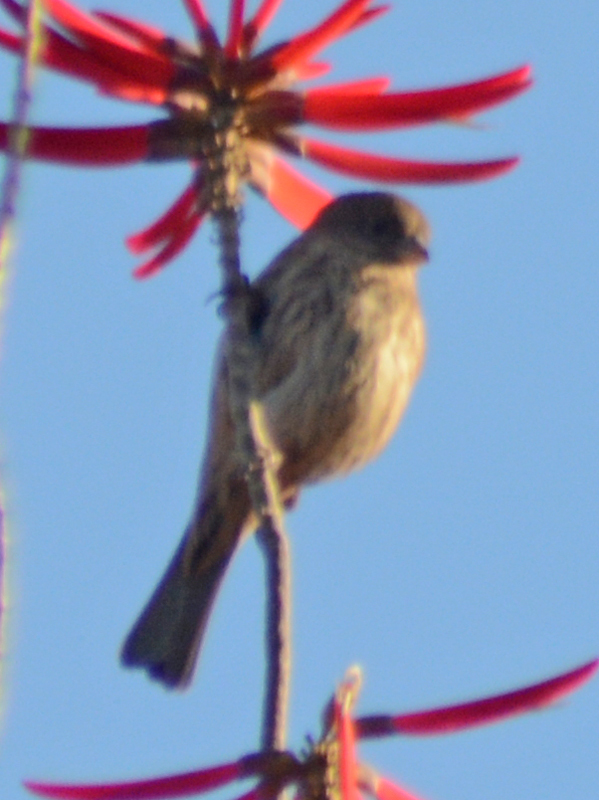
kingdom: Animalia
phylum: Chordata
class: Aves
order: Passeriformes
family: Fringillidae
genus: Haemorhous
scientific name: Haemorhous mexicanus
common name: House finch
